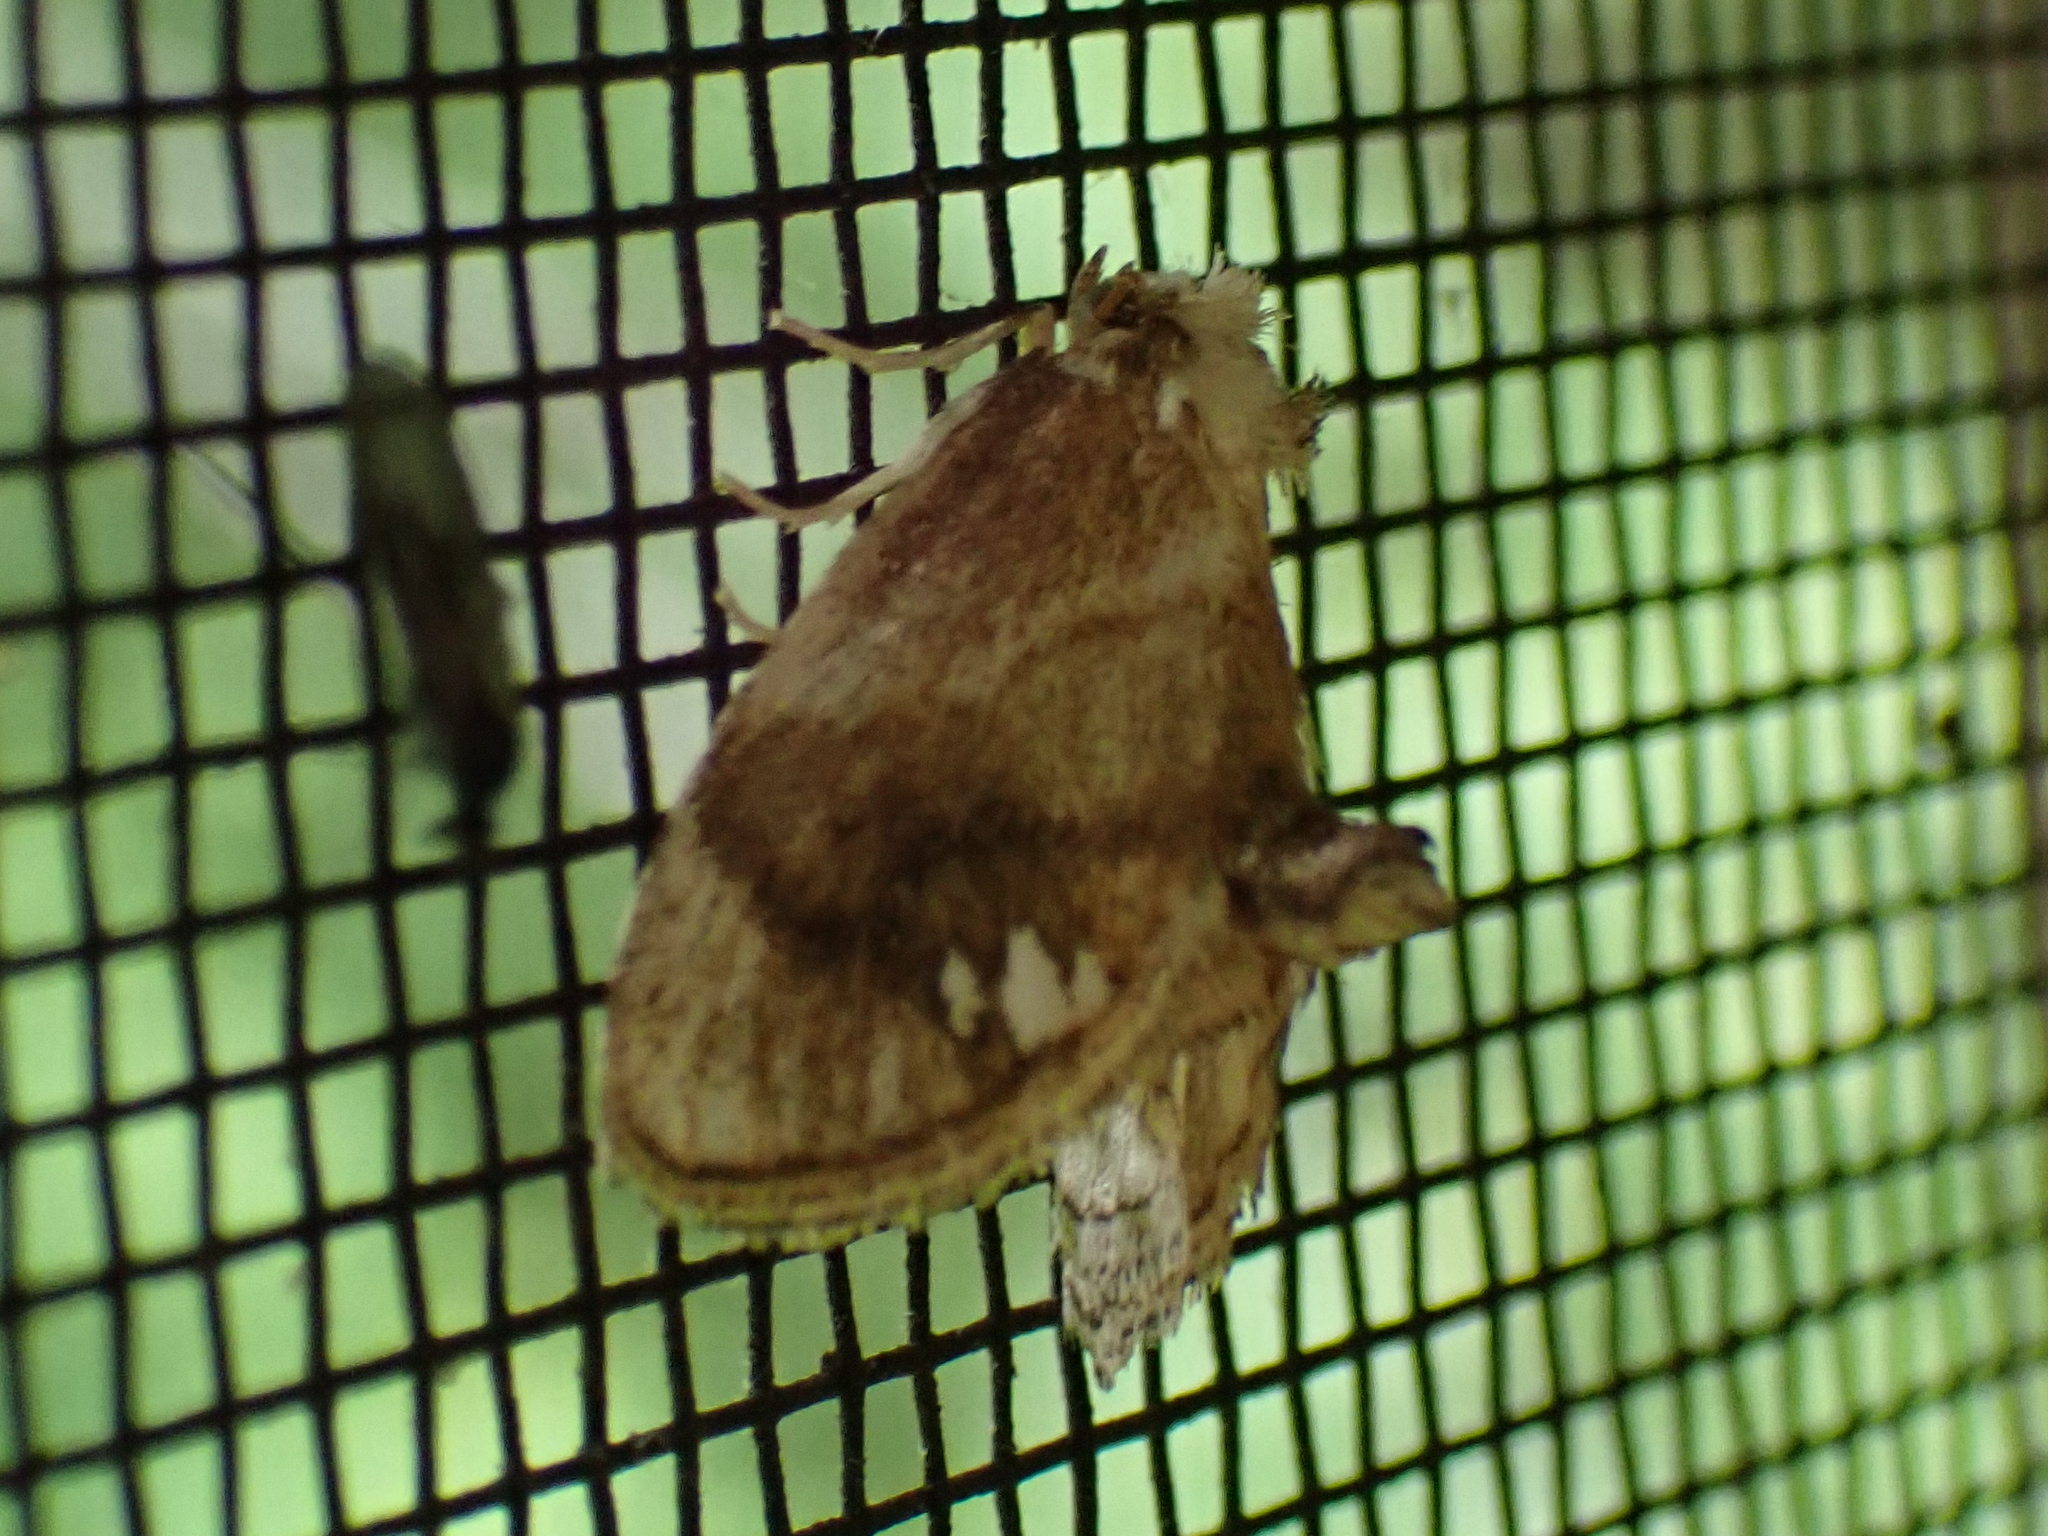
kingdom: Animalia
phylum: Arthropoda
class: Insecta
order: Lepidoptera
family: Limacodidae
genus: Packardia
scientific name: Packardia geminata
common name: Jeweled tailed slug moth
